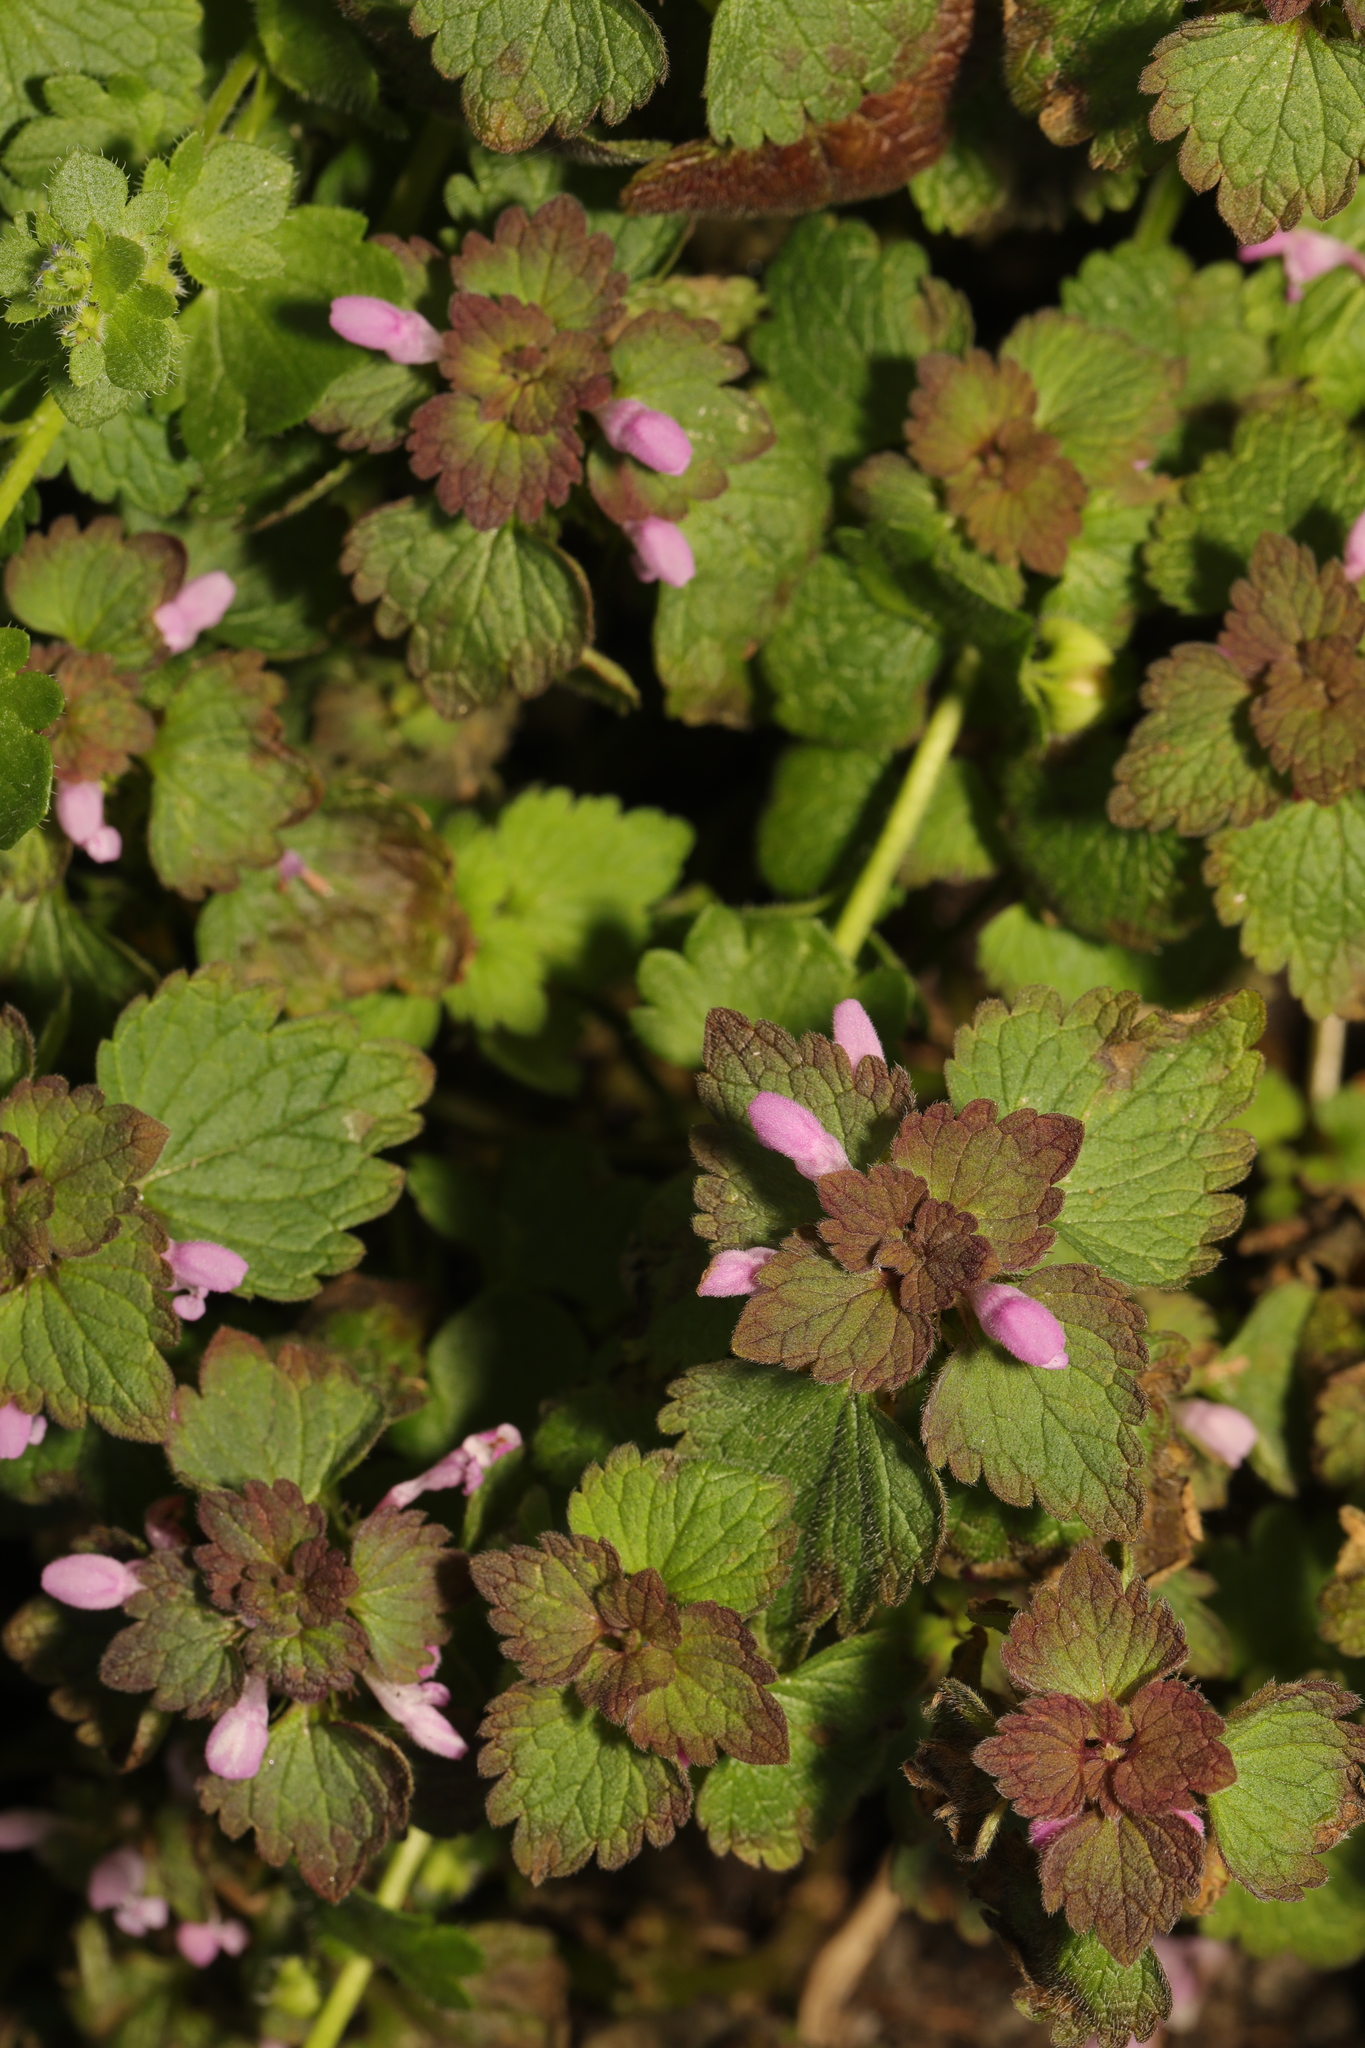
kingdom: Plantae
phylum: Tracheophyta
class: Magnoliopsida
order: Lamiales
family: Lamiaceae
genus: Lamium
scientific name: Lamium purpureum
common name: Red dead-nettle
